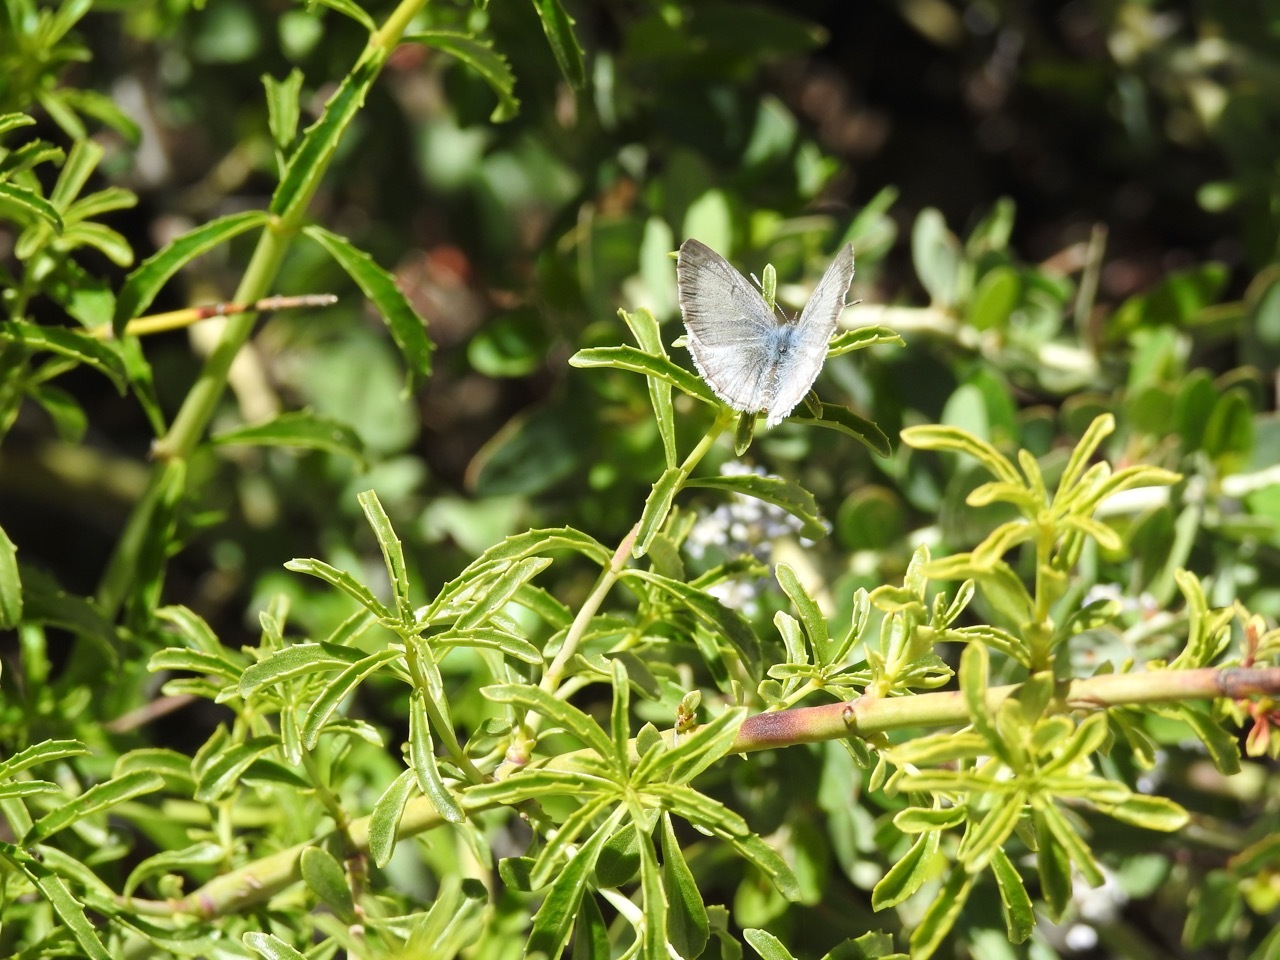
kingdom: Animalia
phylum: Arthropoda
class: Insecta
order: Lepidoptera
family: Lycaenidae
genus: Celastrina
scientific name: Celastrina ladon
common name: Spring azure
